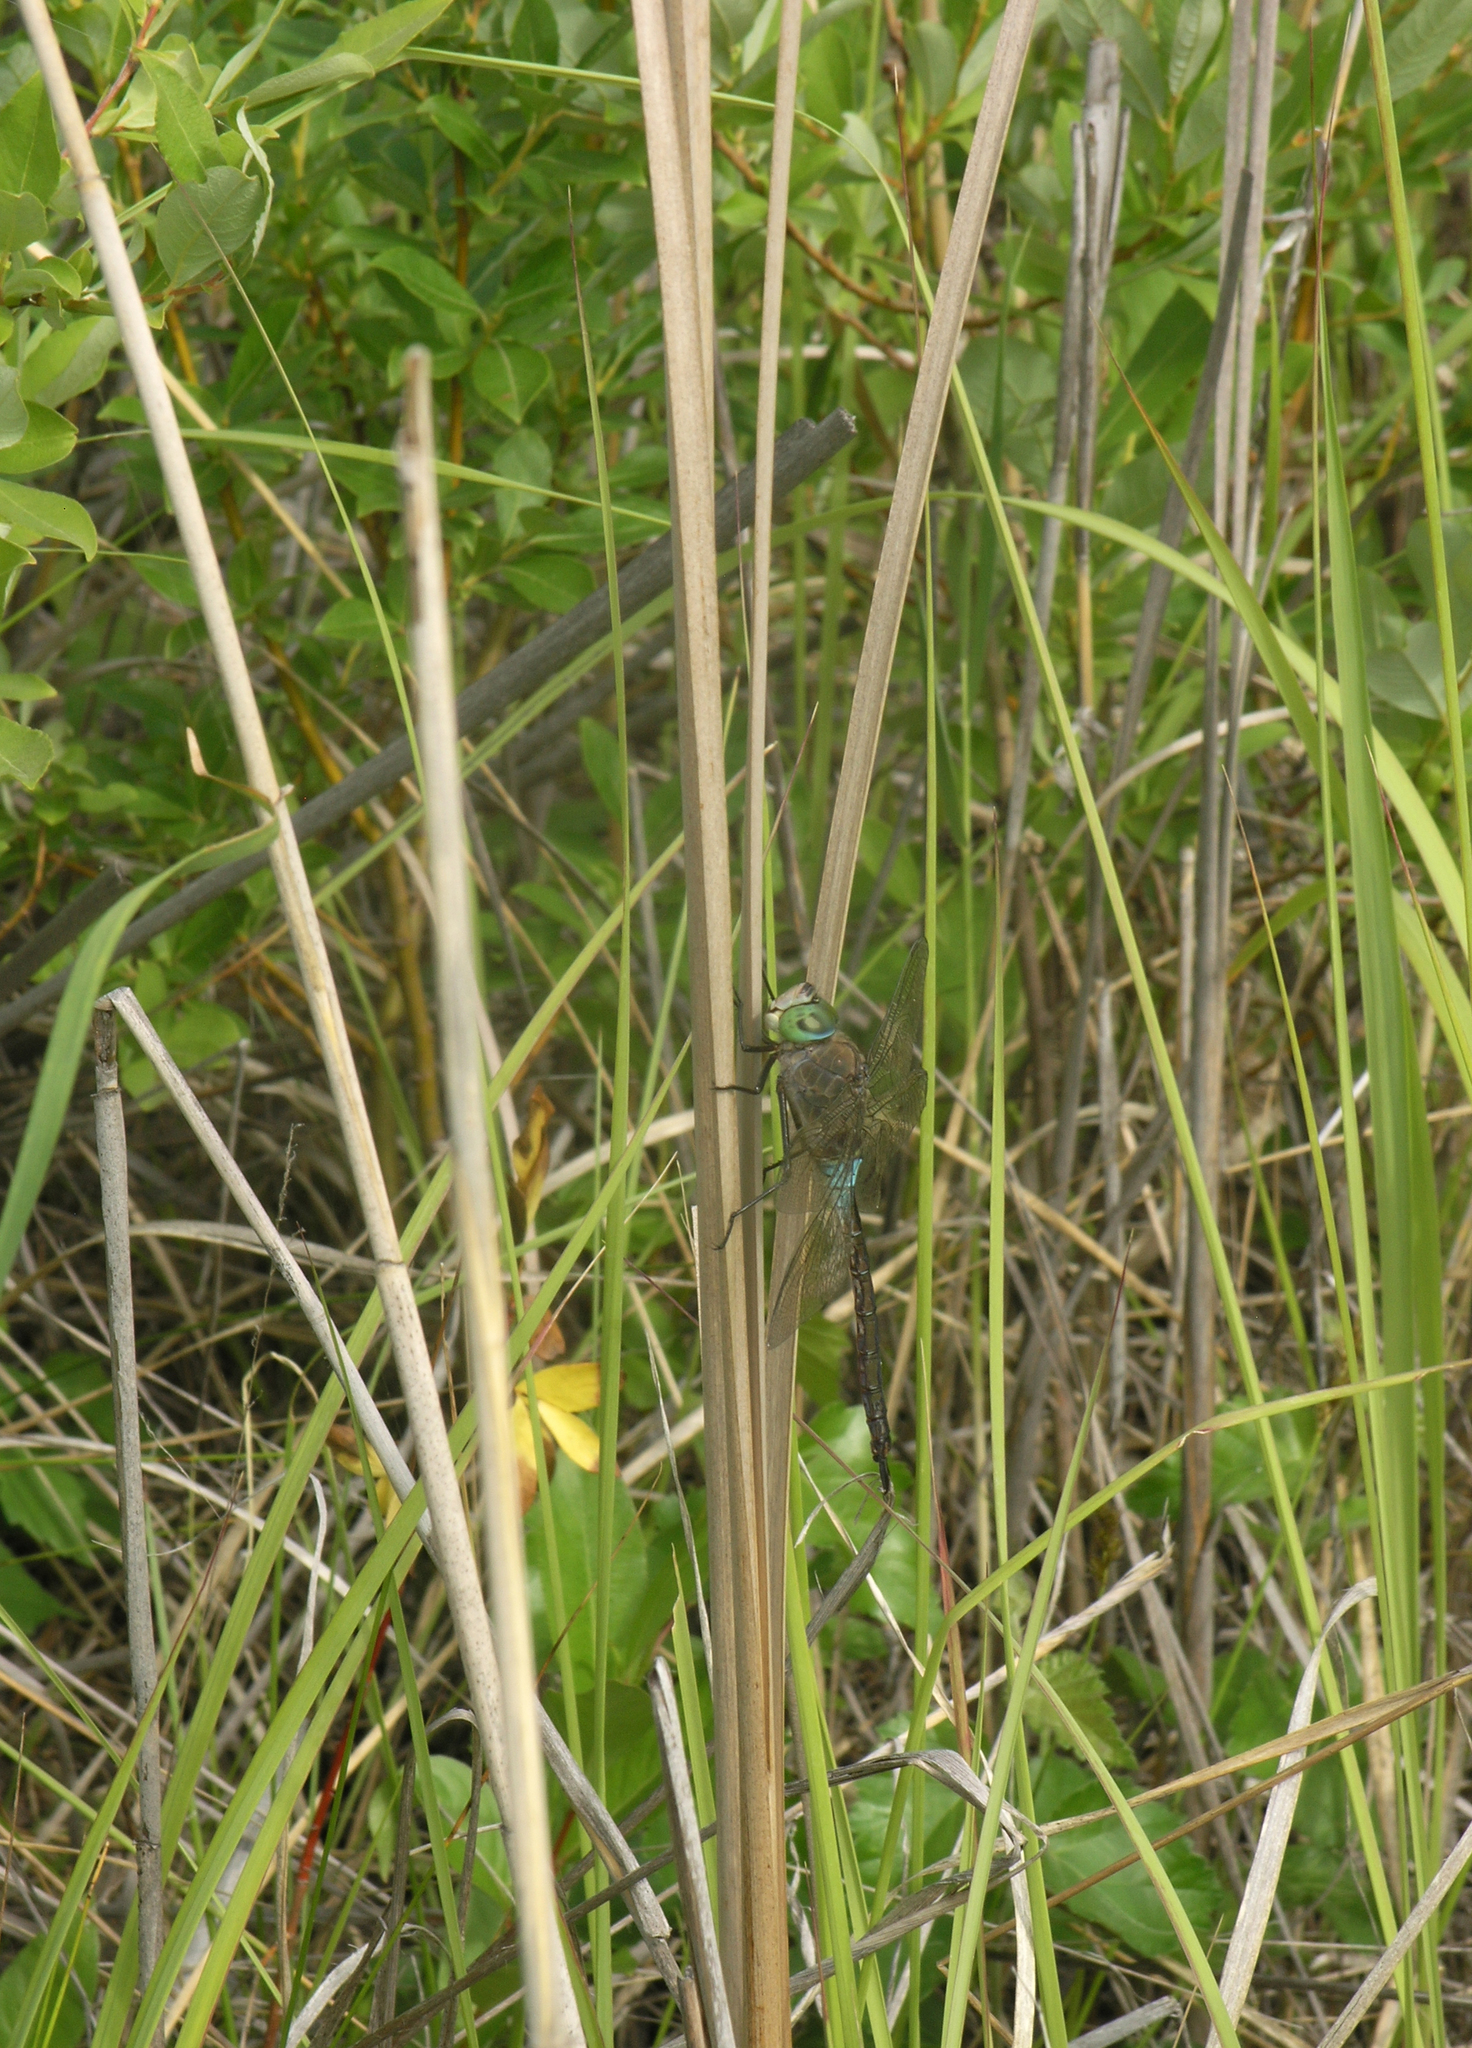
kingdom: Animalia
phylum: Arthropoda
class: Insecta
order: Odonata
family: Aeshnidae
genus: Anax
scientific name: Anax parthenope
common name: Lesser emperor
